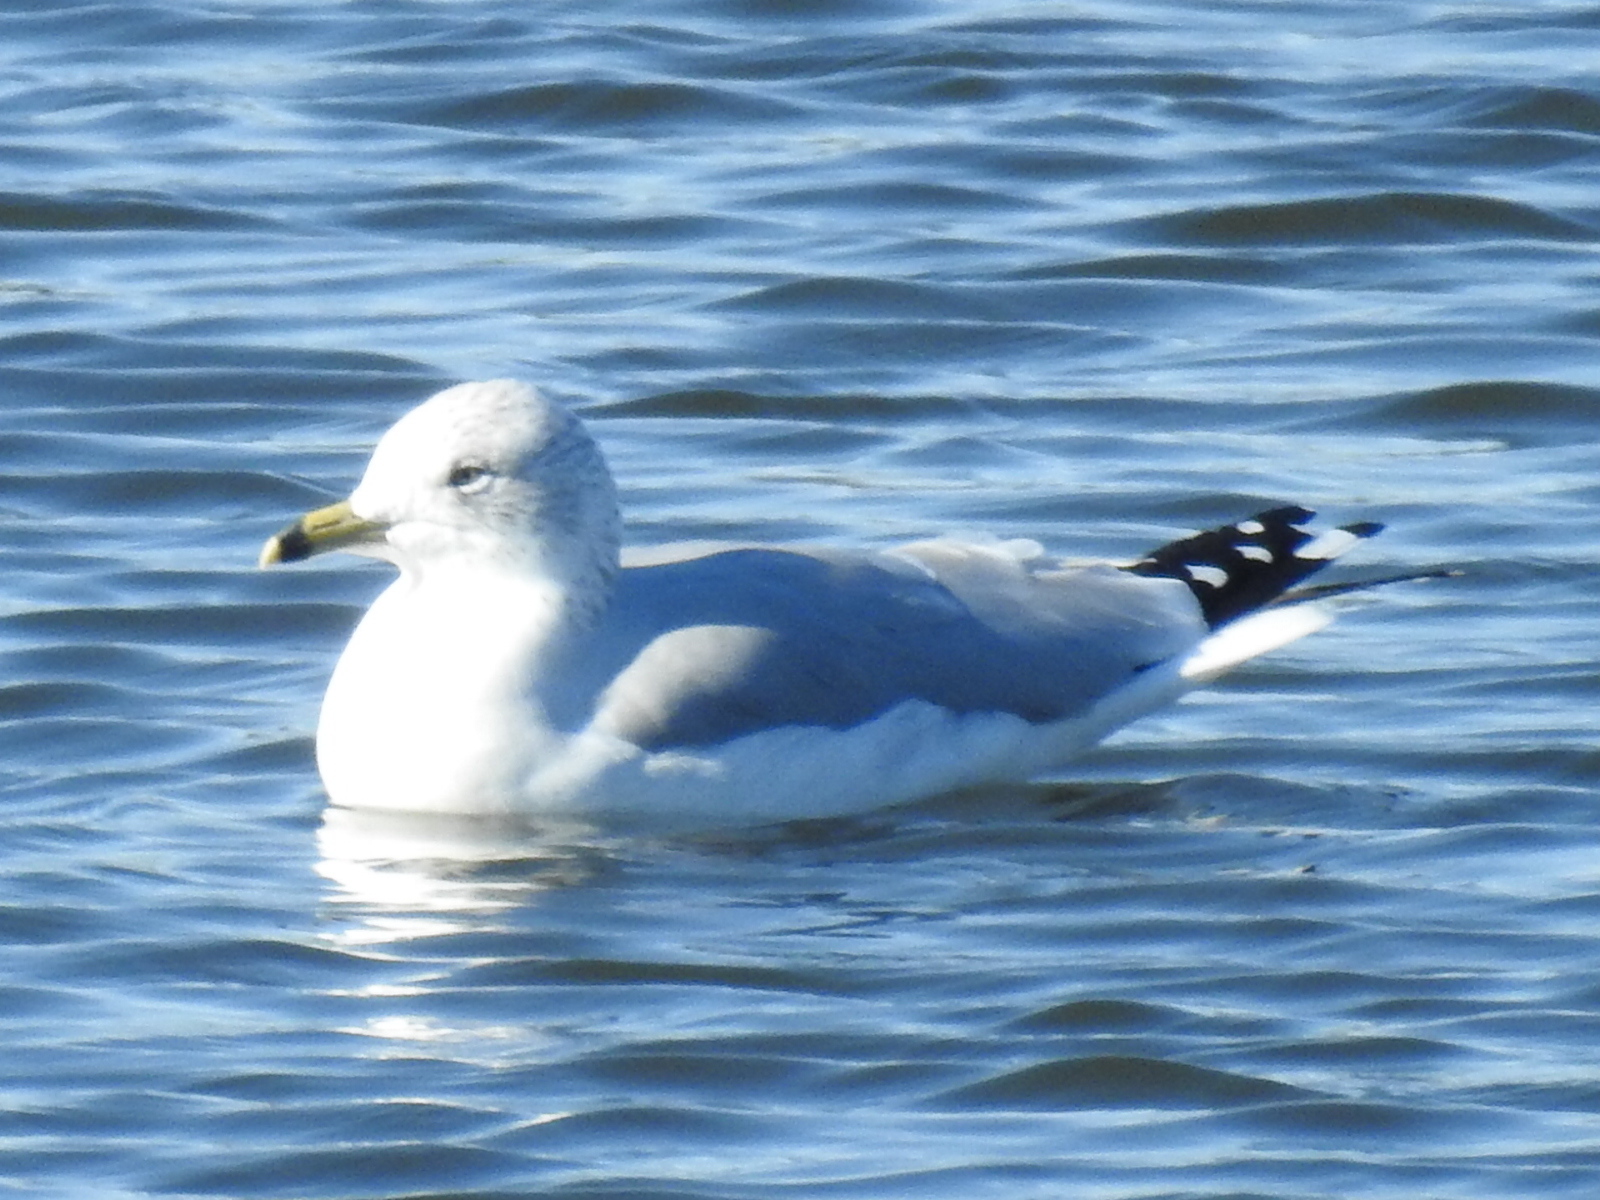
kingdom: Animalia
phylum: Chordata
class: Aves
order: Charadriiformes
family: Laridae
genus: Larus
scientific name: Larus delawarensis
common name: Ring-billed gull
